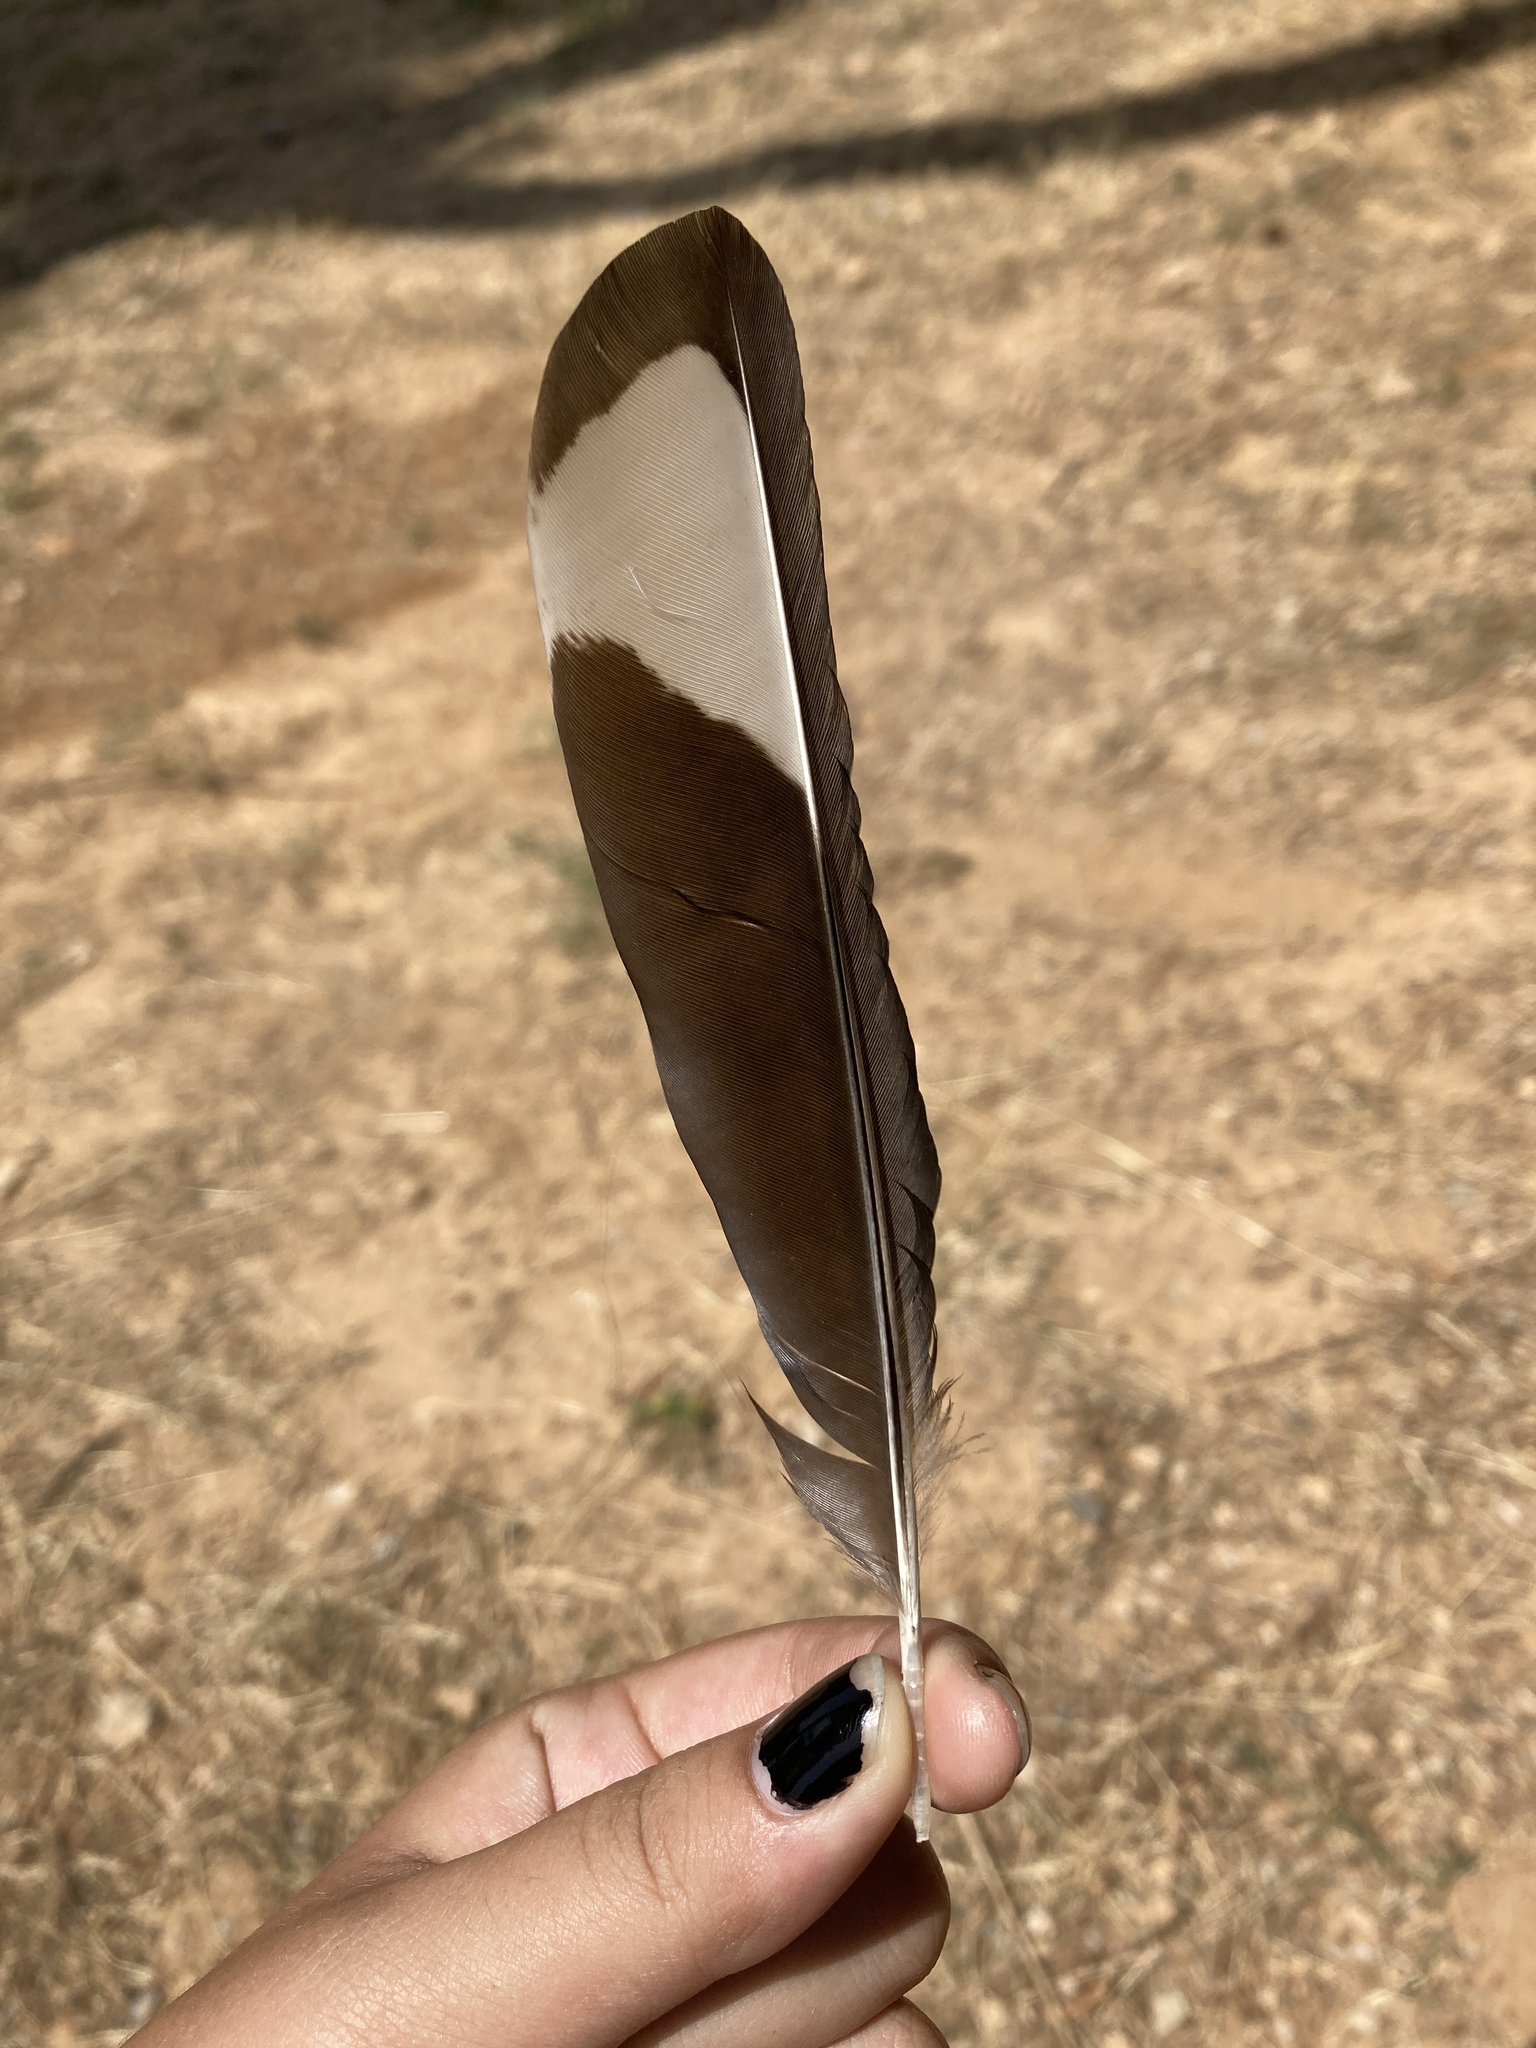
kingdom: Animalia
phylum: Chordata
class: Aves
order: Passeriformes
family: Corvidae
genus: Pica
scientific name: Pica pica
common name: Eurasian magpie
